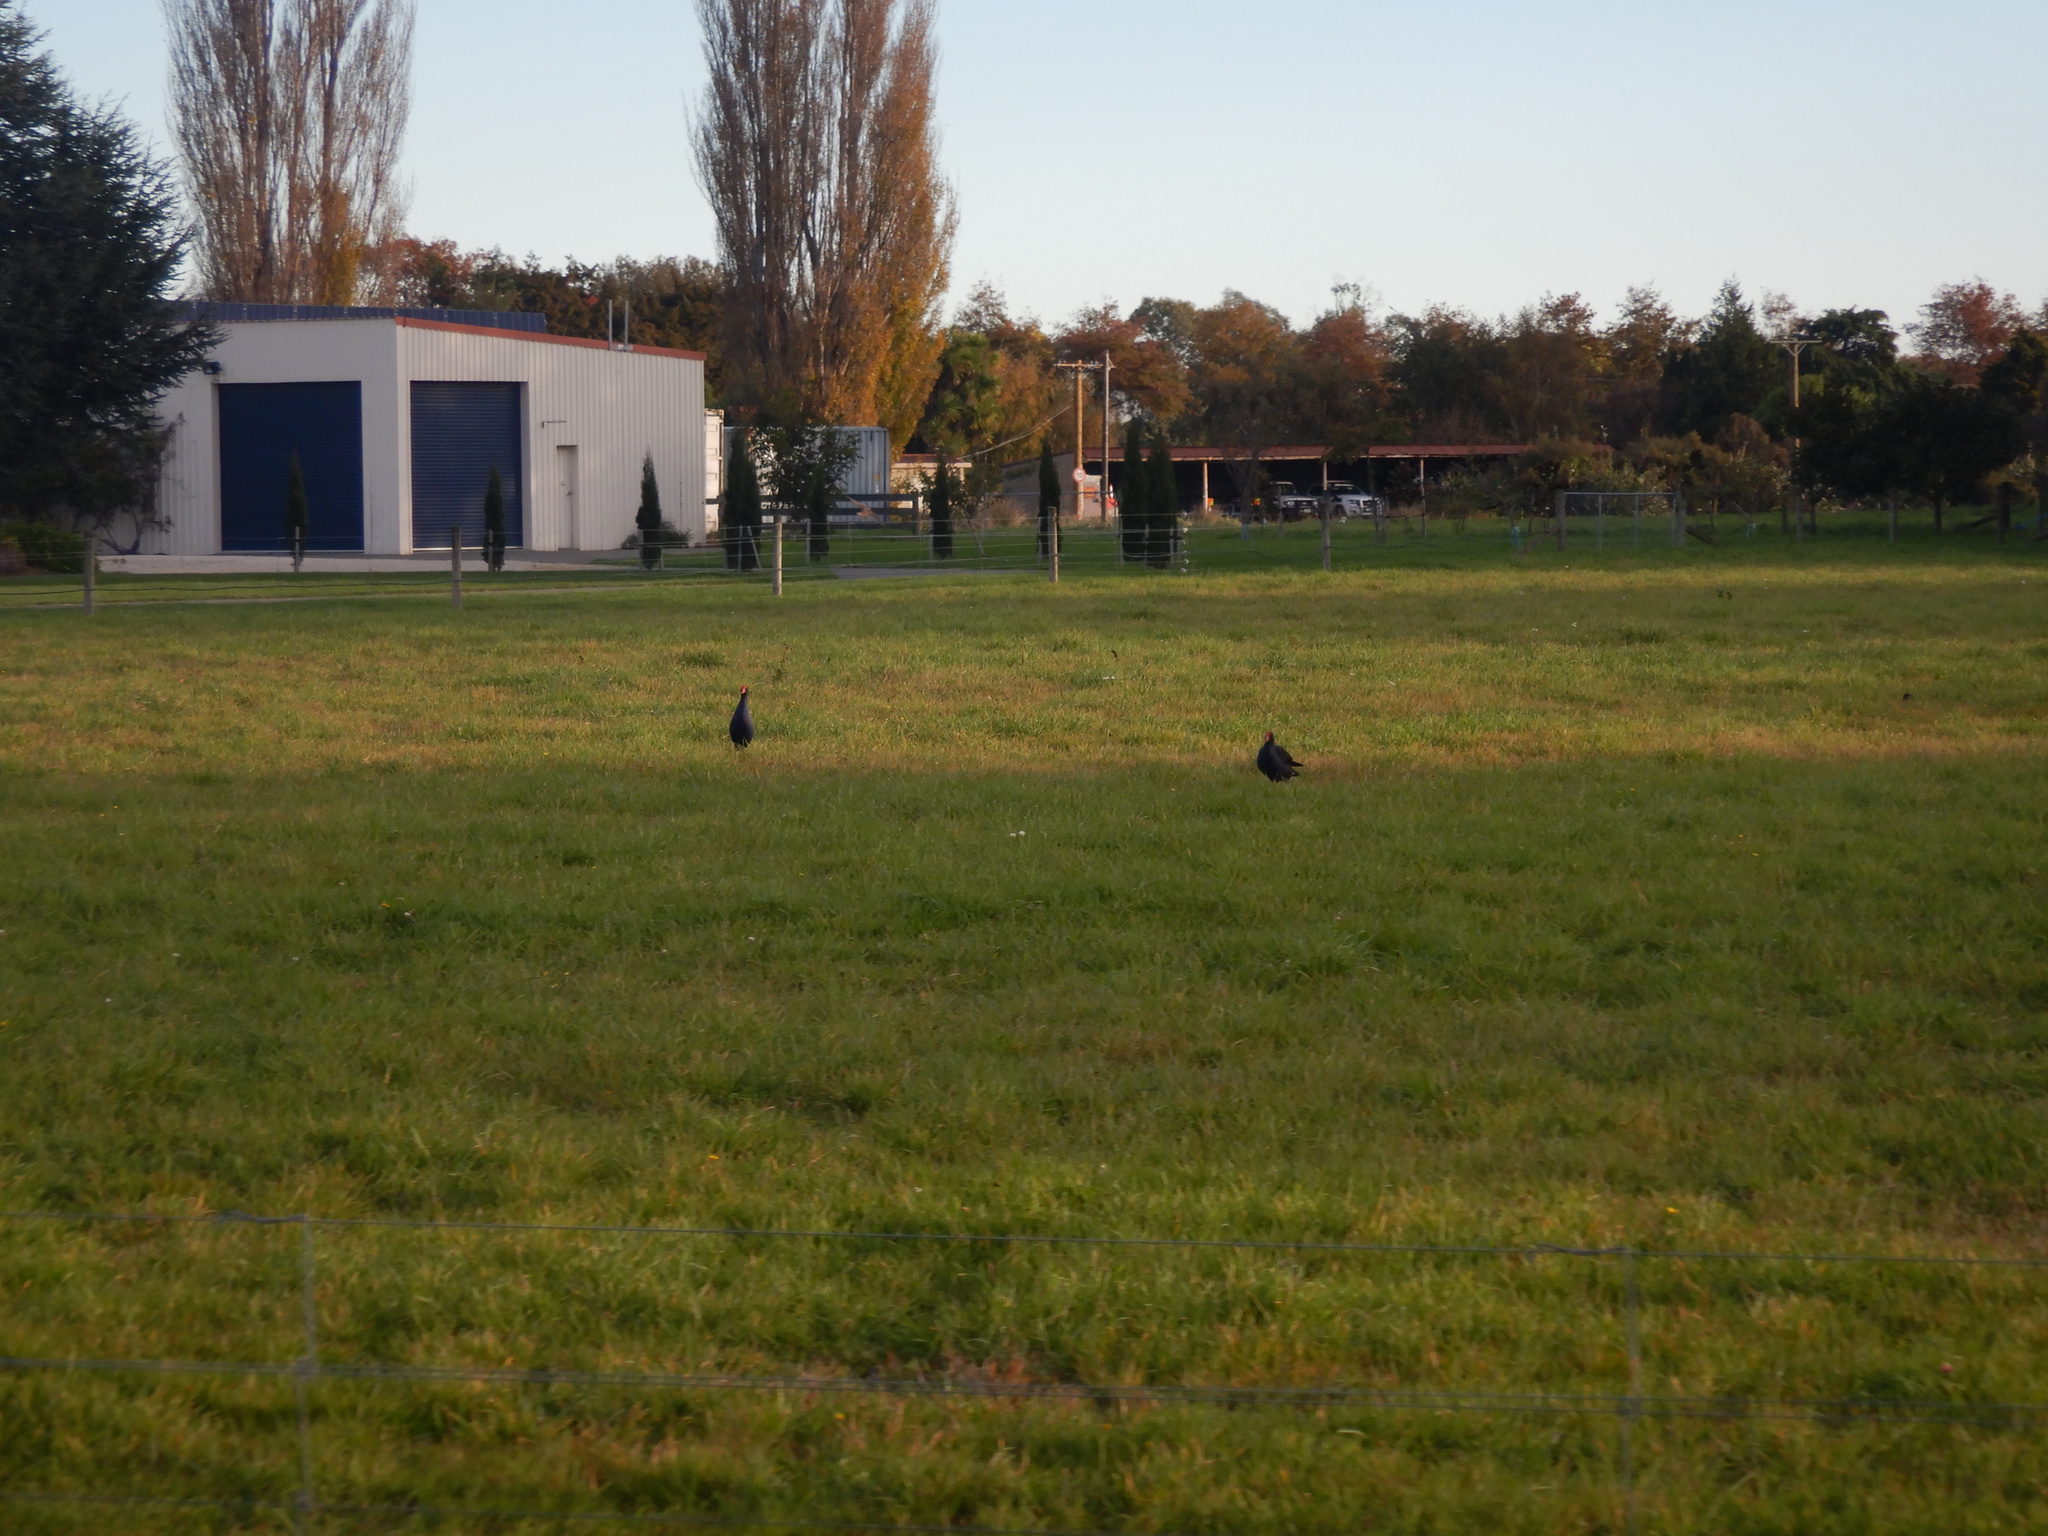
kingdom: Animalia
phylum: Chordata
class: Aves
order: Gruiformes
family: Rallidae
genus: Porphyrio
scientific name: Porphyrio melanotus
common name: Australasian swamphen
